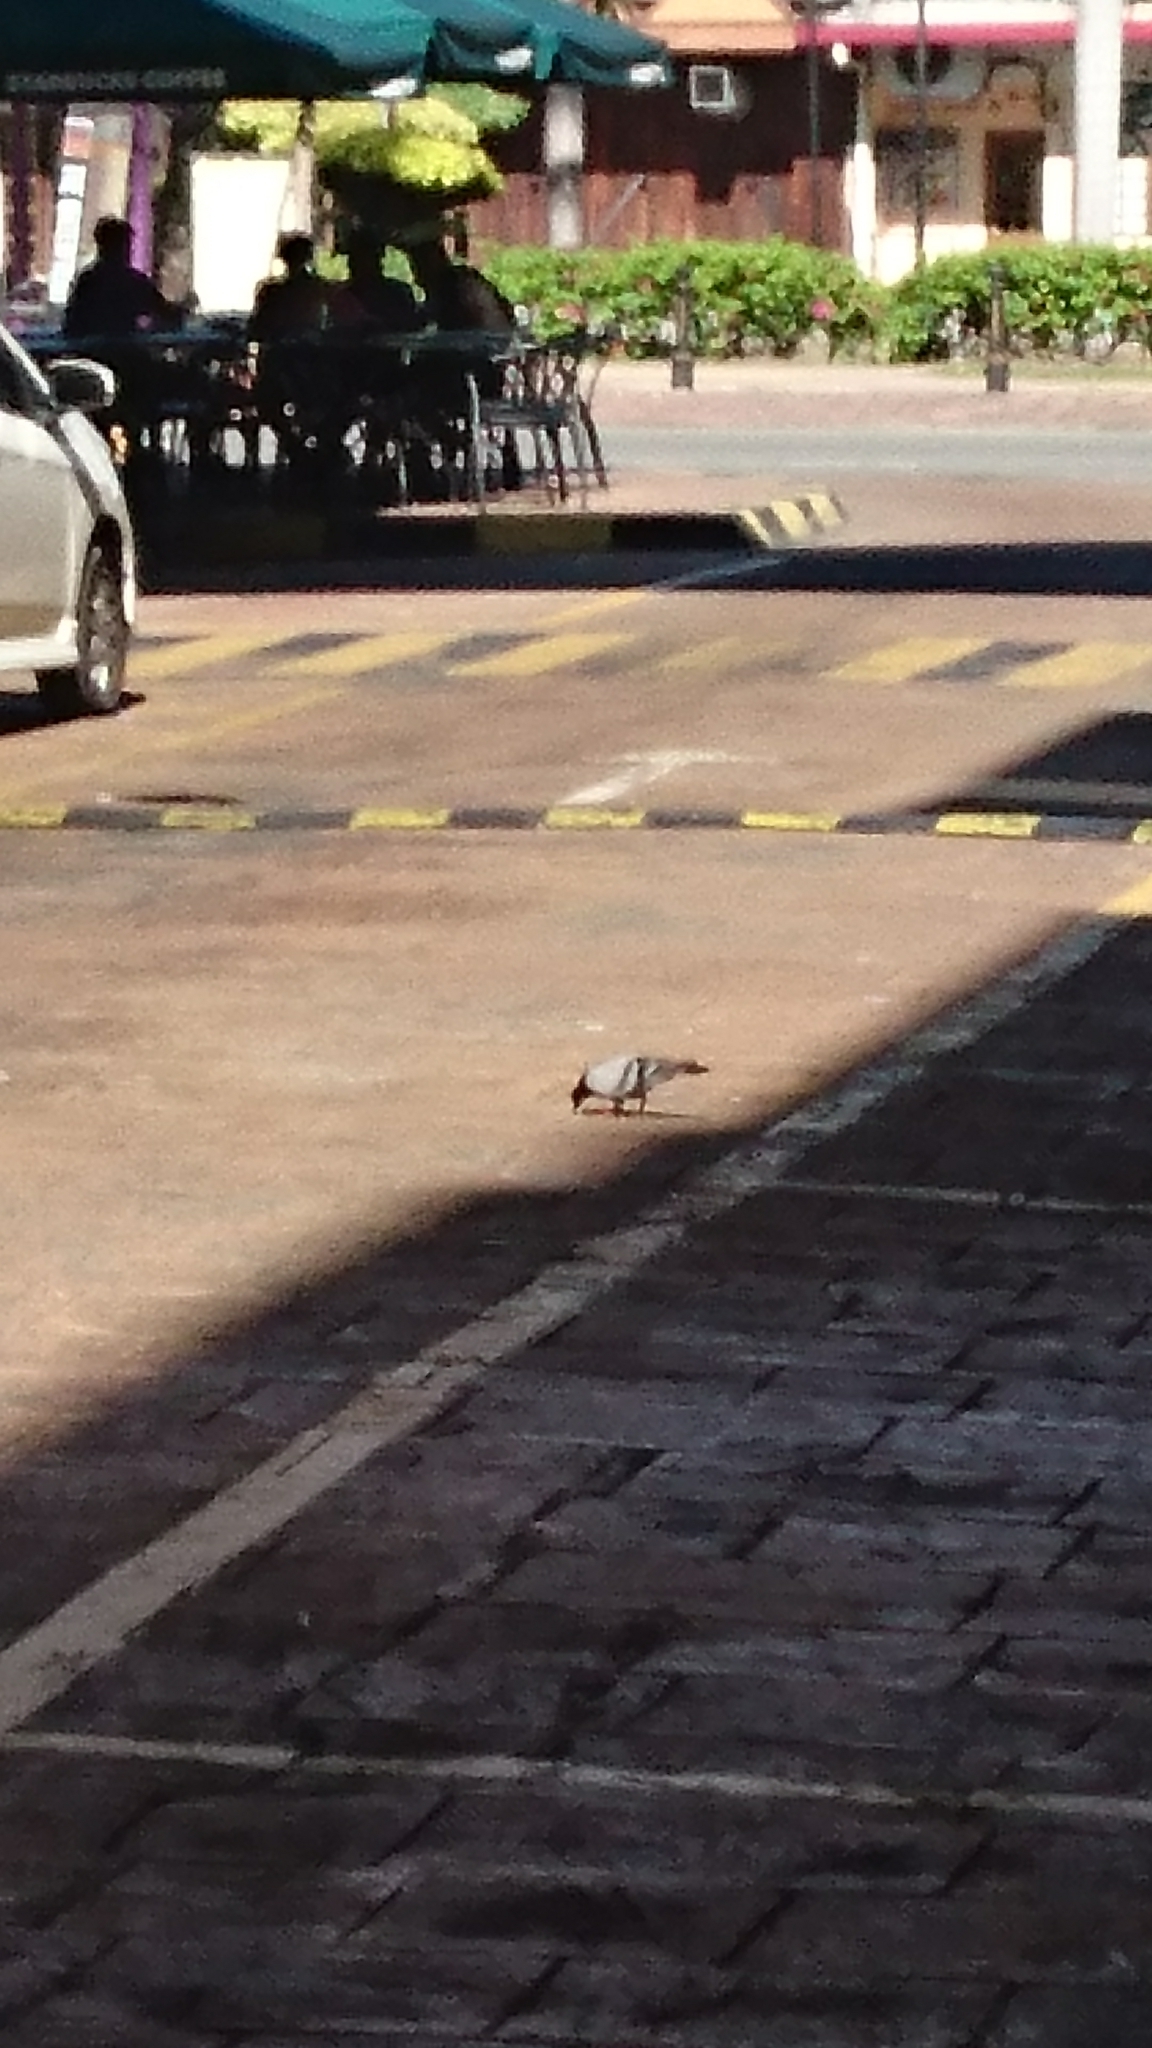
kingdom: Animalia
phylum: Chordata
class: Aves
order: Columbiformes
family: Columbidae
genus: Columba
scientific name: Columba livia
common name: Rock pigeon
